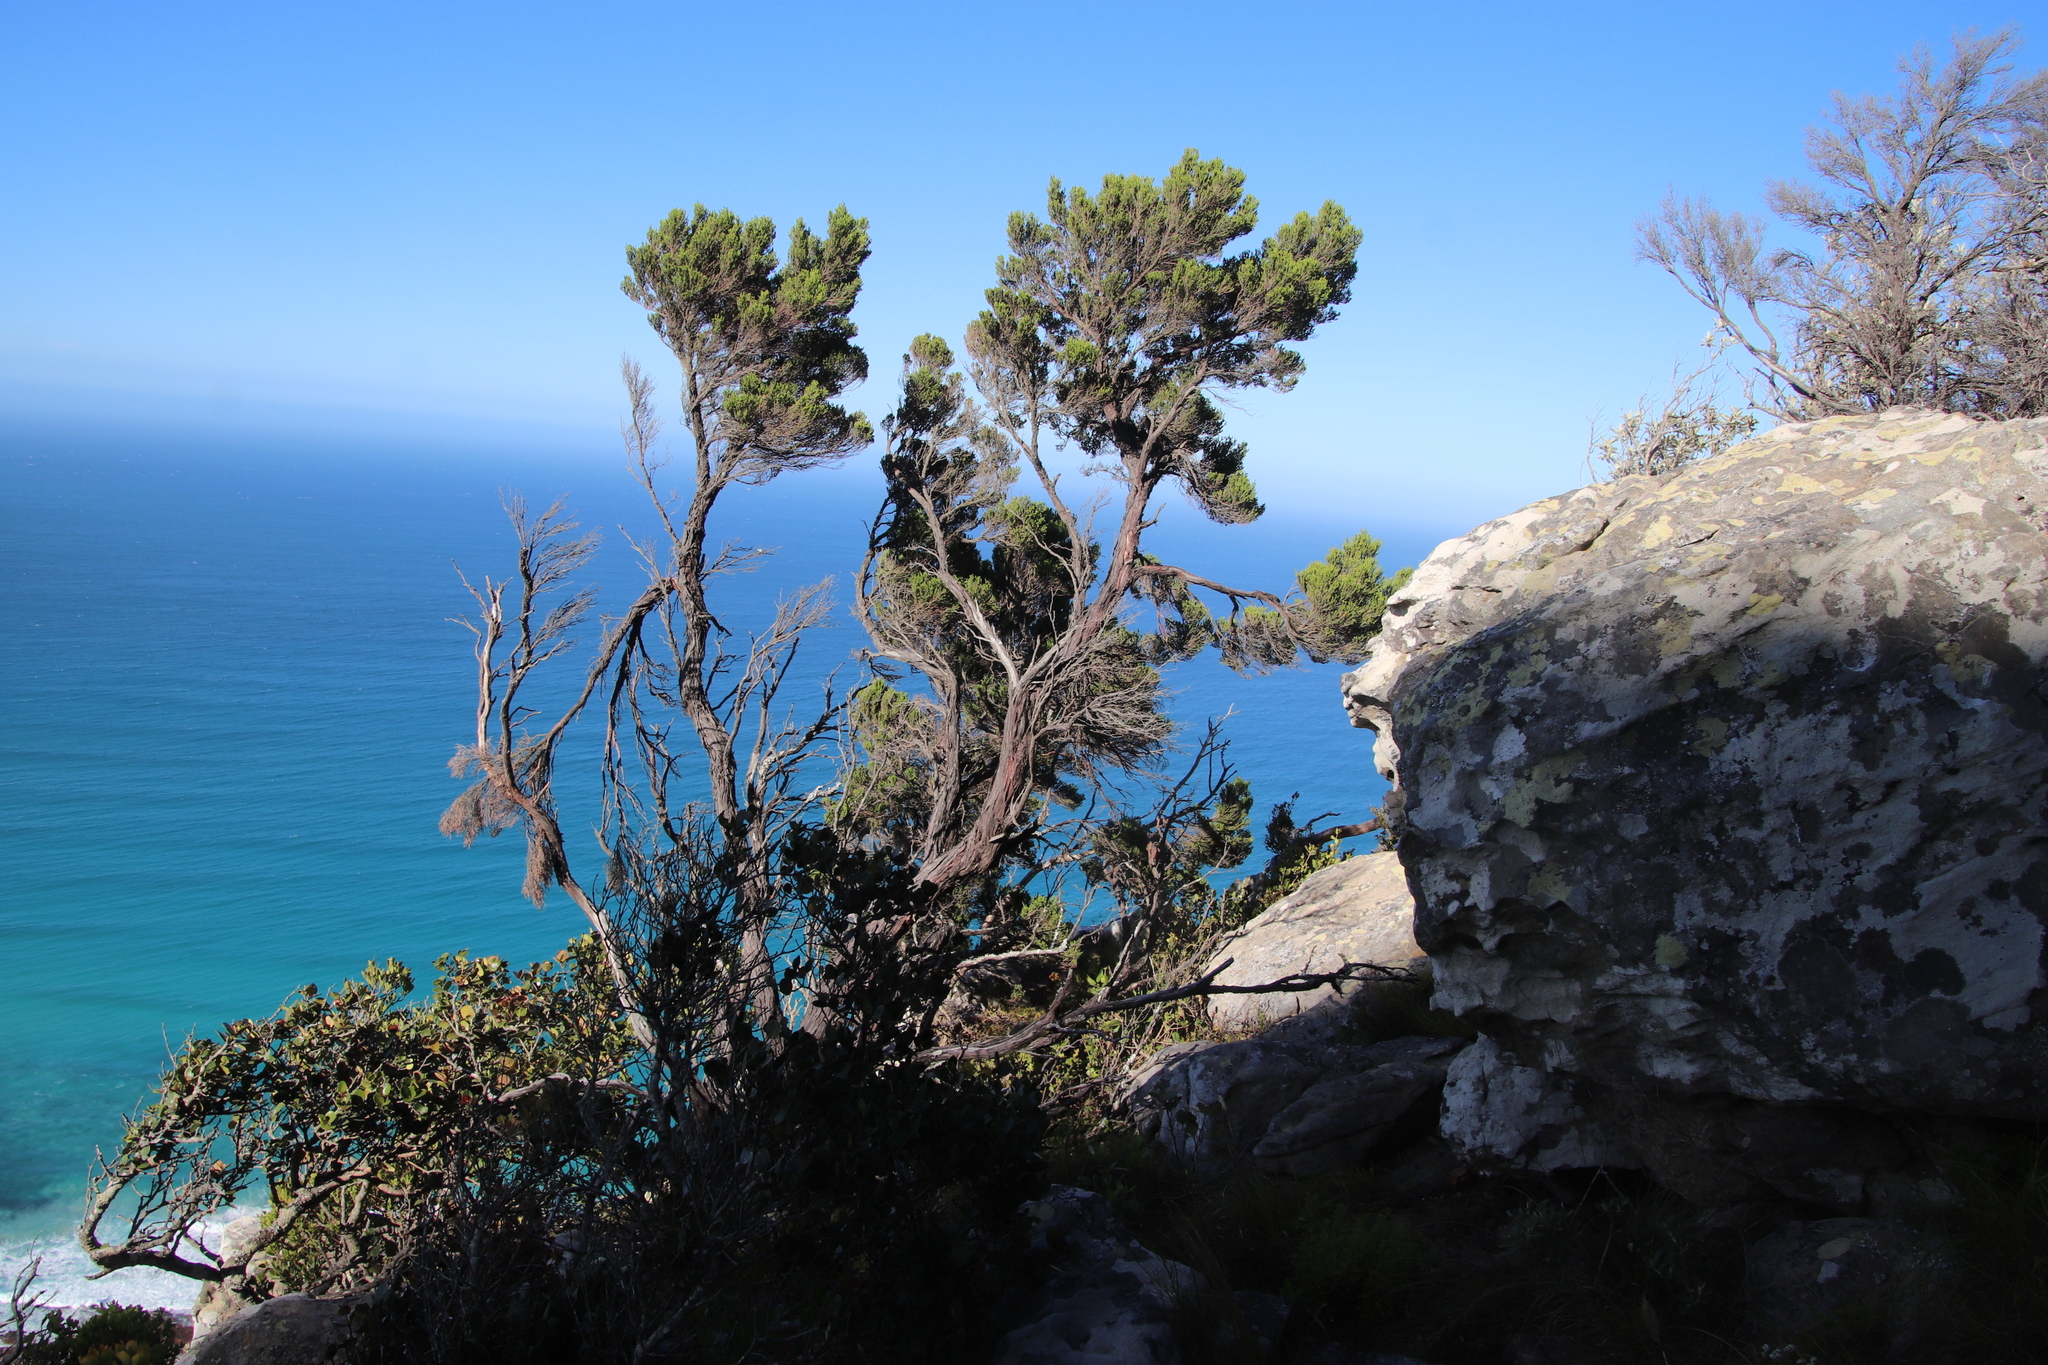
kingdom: Plantae
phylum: Tracheophyta
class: Magnoliopsida
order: Ericales
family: Ericaceae
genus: Erica
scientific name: Erica tristis
